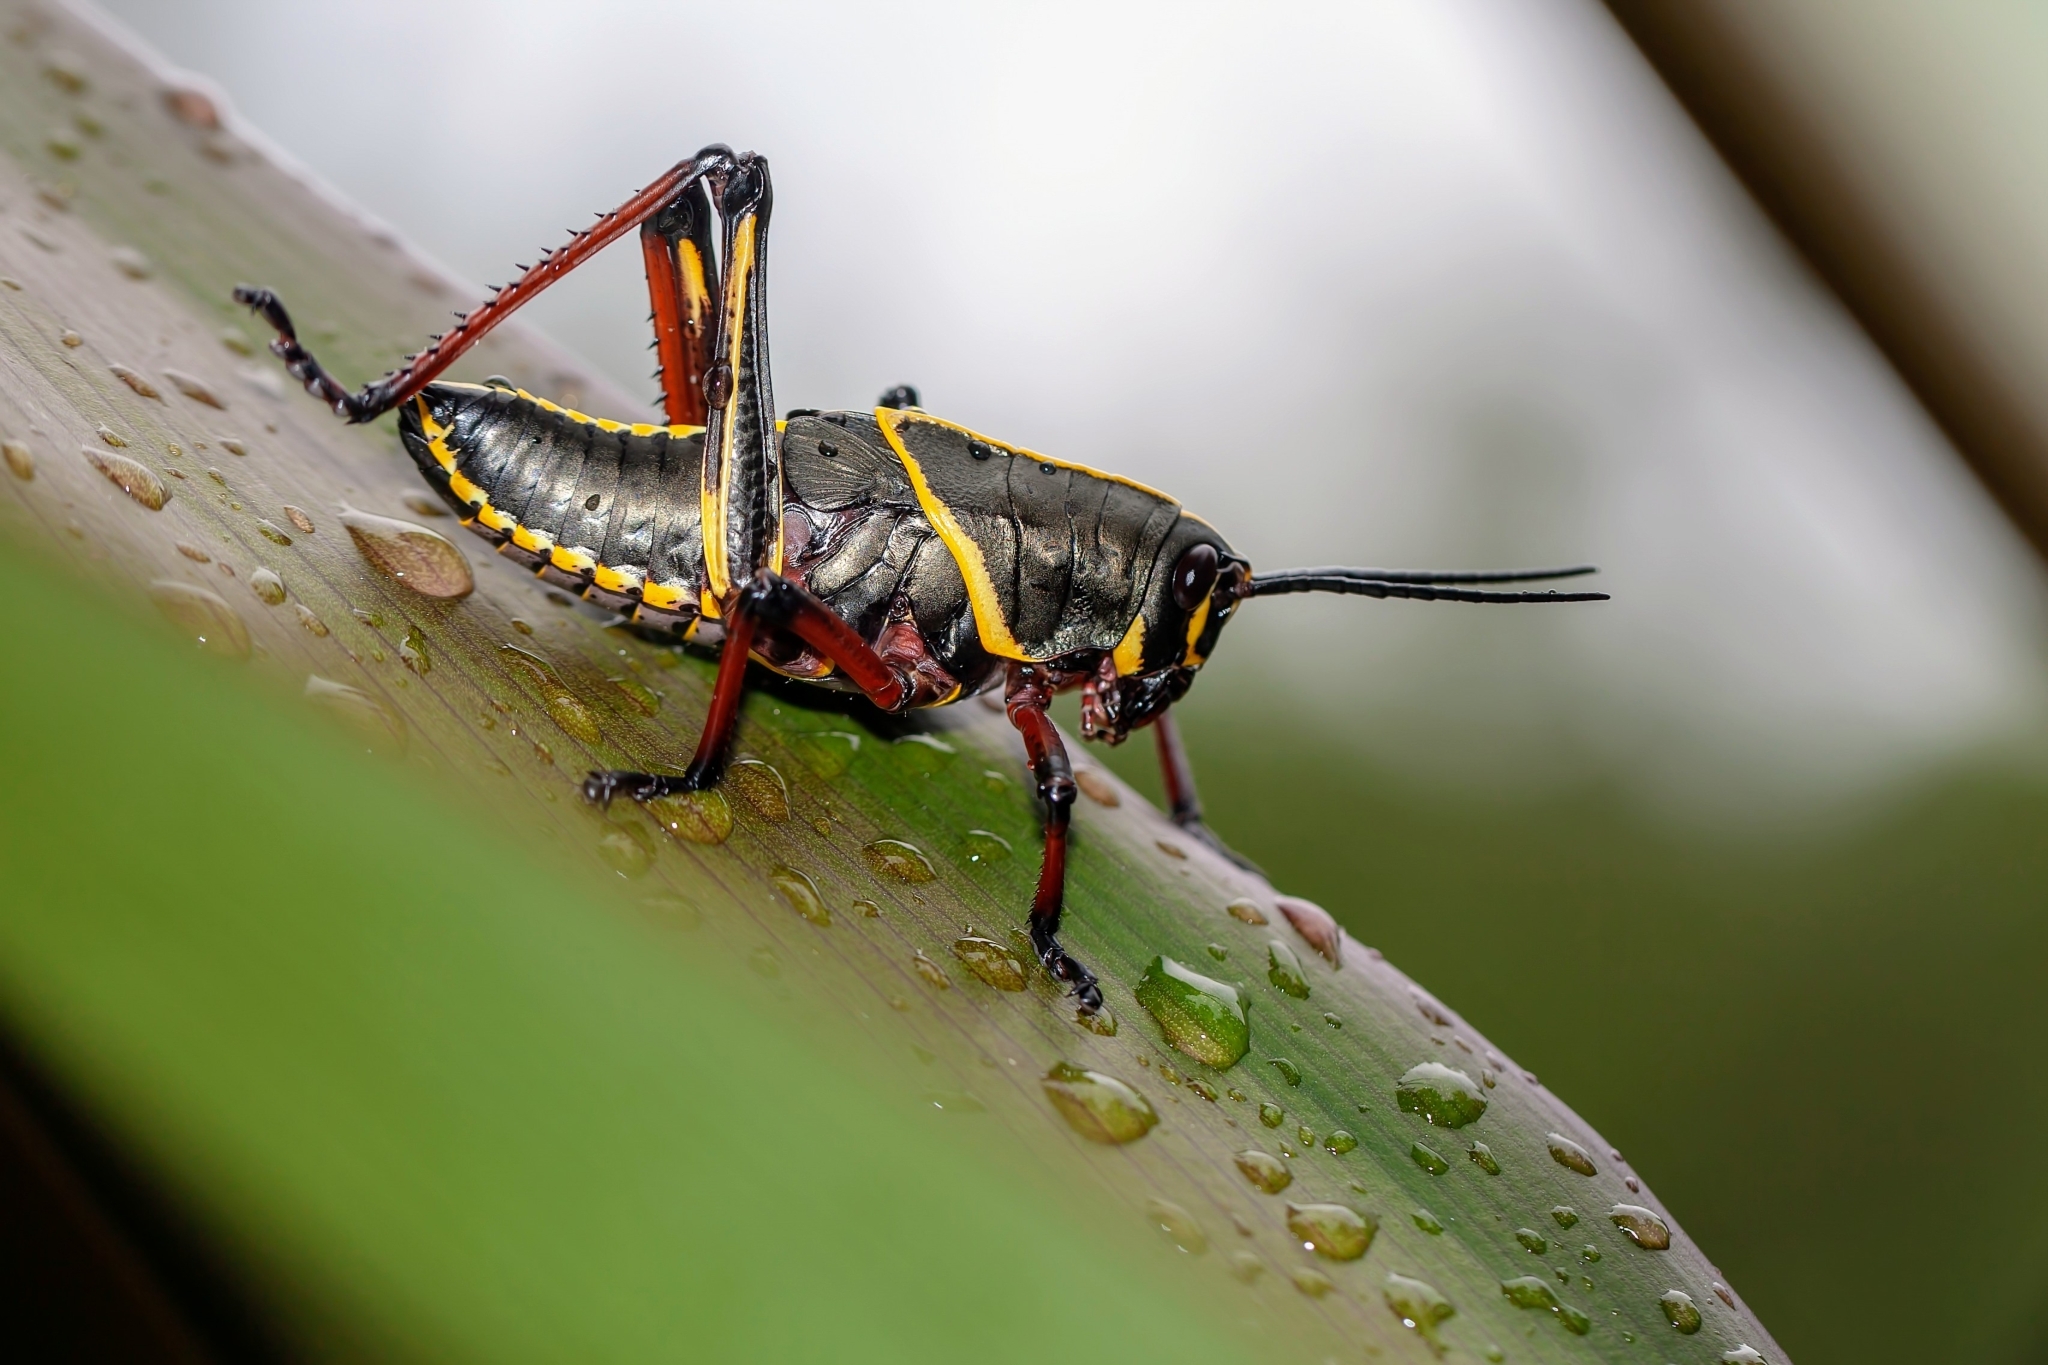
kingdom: Animalia
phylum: Arthropoda
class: Insecta
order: Orthoptera
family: Romaleidae
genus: Romalea
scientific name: Romalea microptera
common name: Eastern lubber grasshopper
